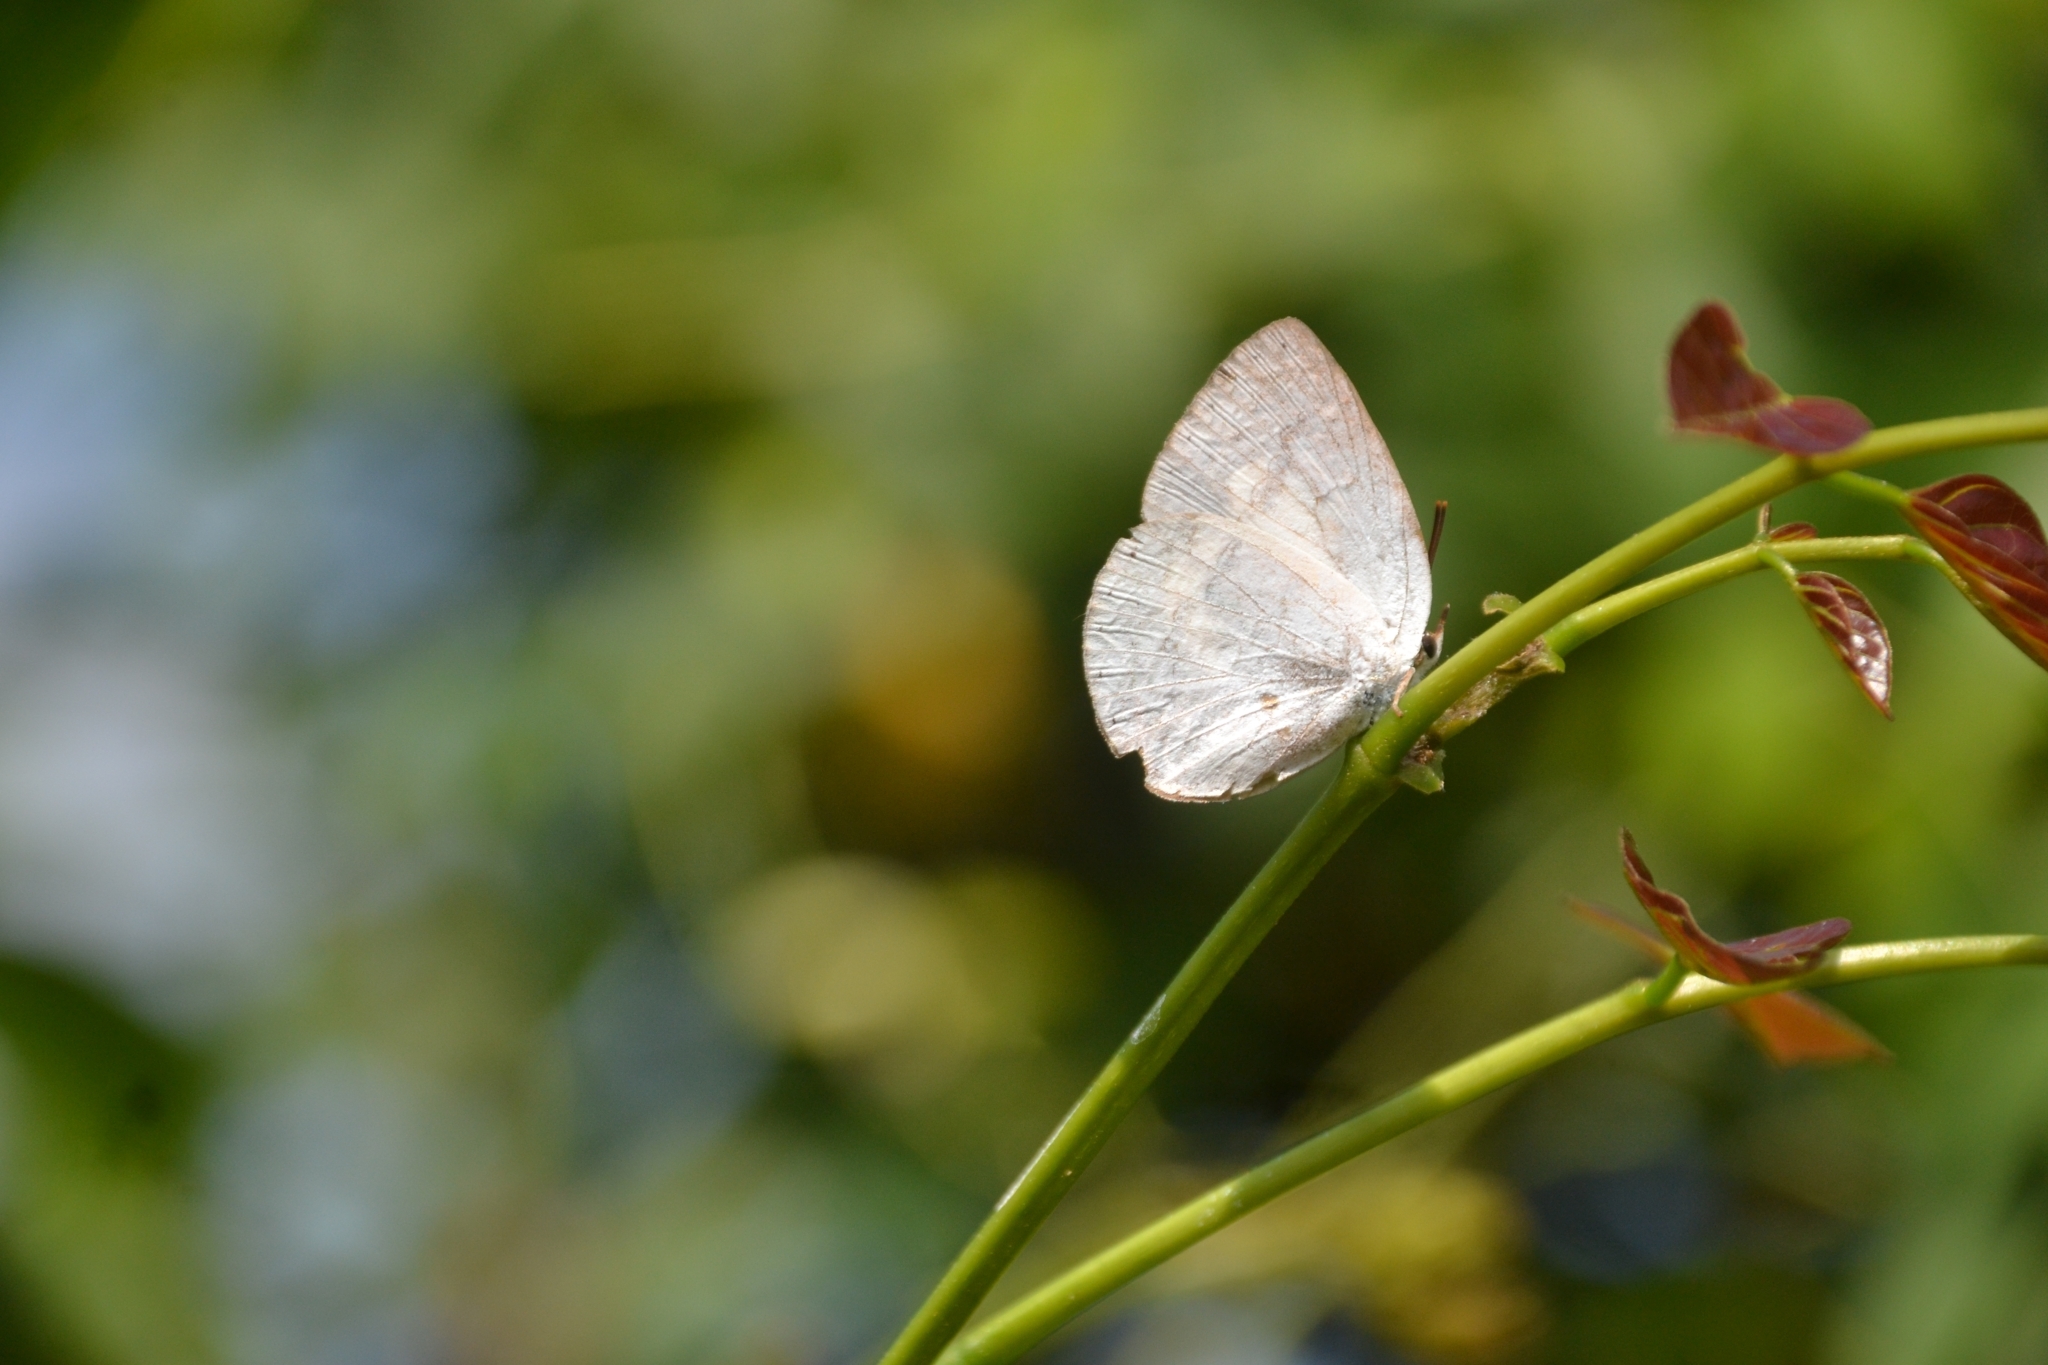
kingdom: Animalia
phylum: Arthropoda
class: Insecta
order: Lepidoptera
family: Lycaenidae
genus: Curetis
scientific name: Curetis thetis
